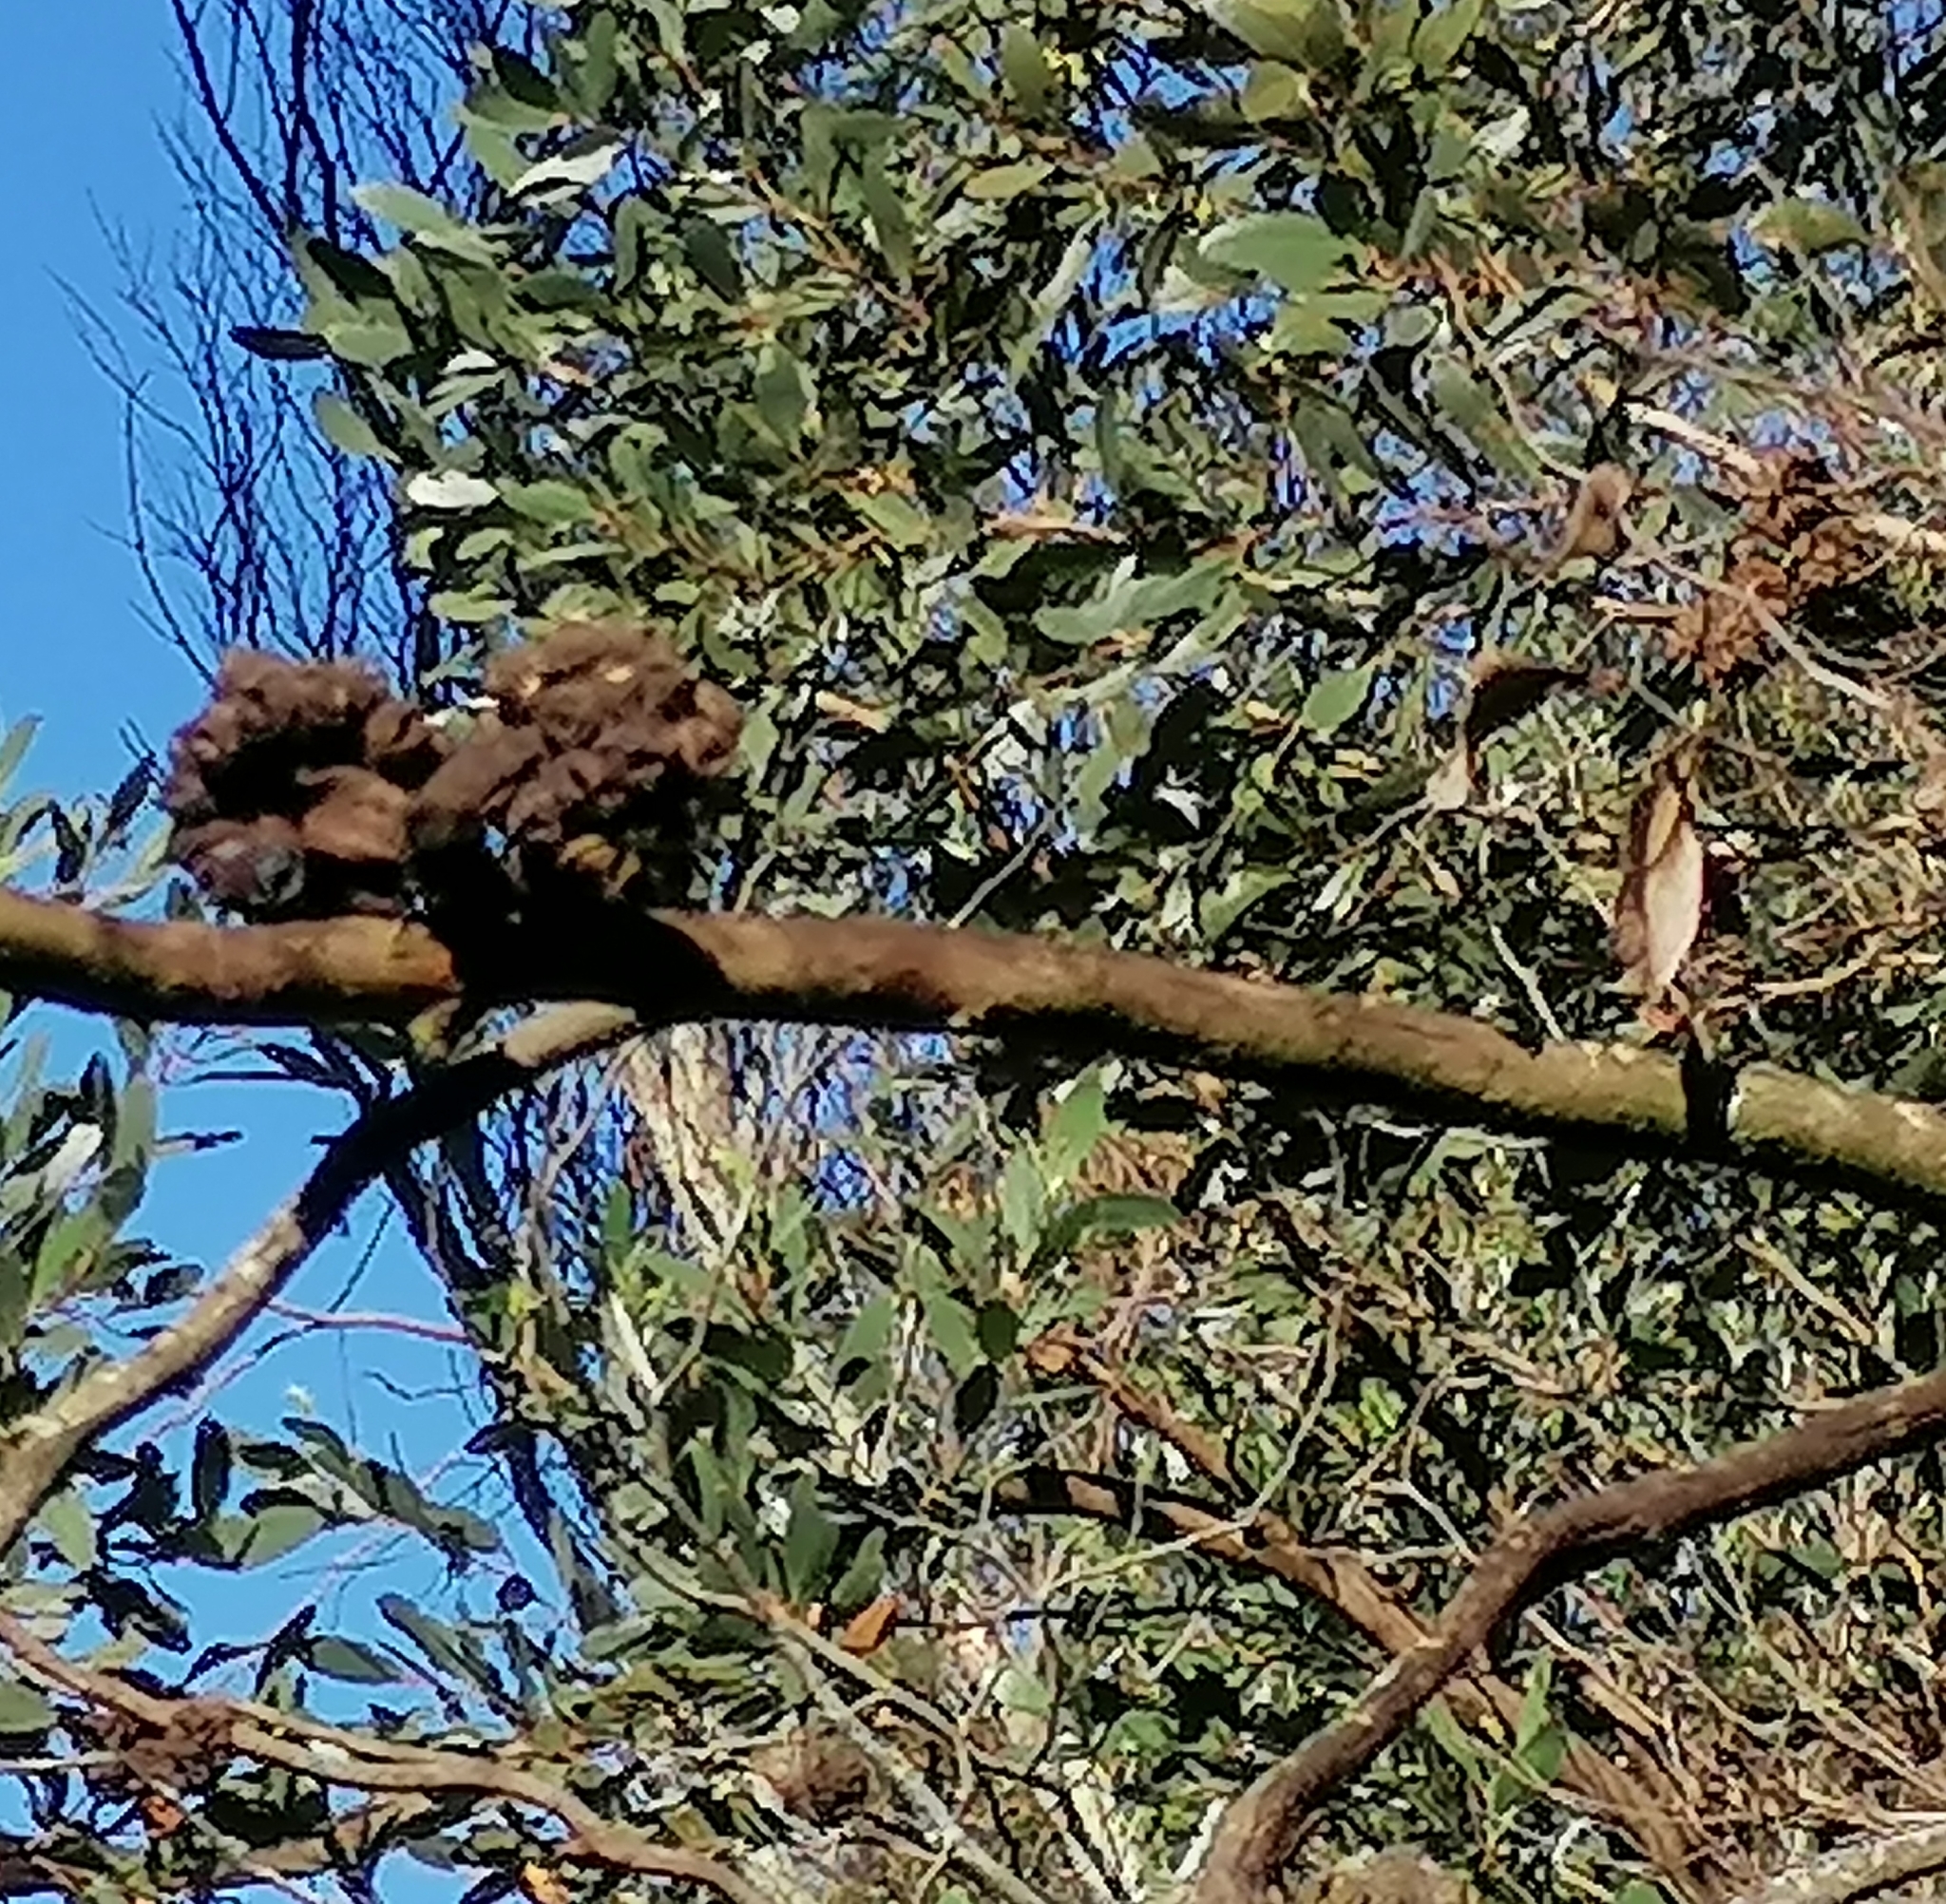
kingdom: Plantae
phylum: Tracheophyta
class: Magnoliopsida
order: Myrtales
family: Myrtaceae
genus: Eucalyptus
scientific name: Eucalyptus conferruminata
